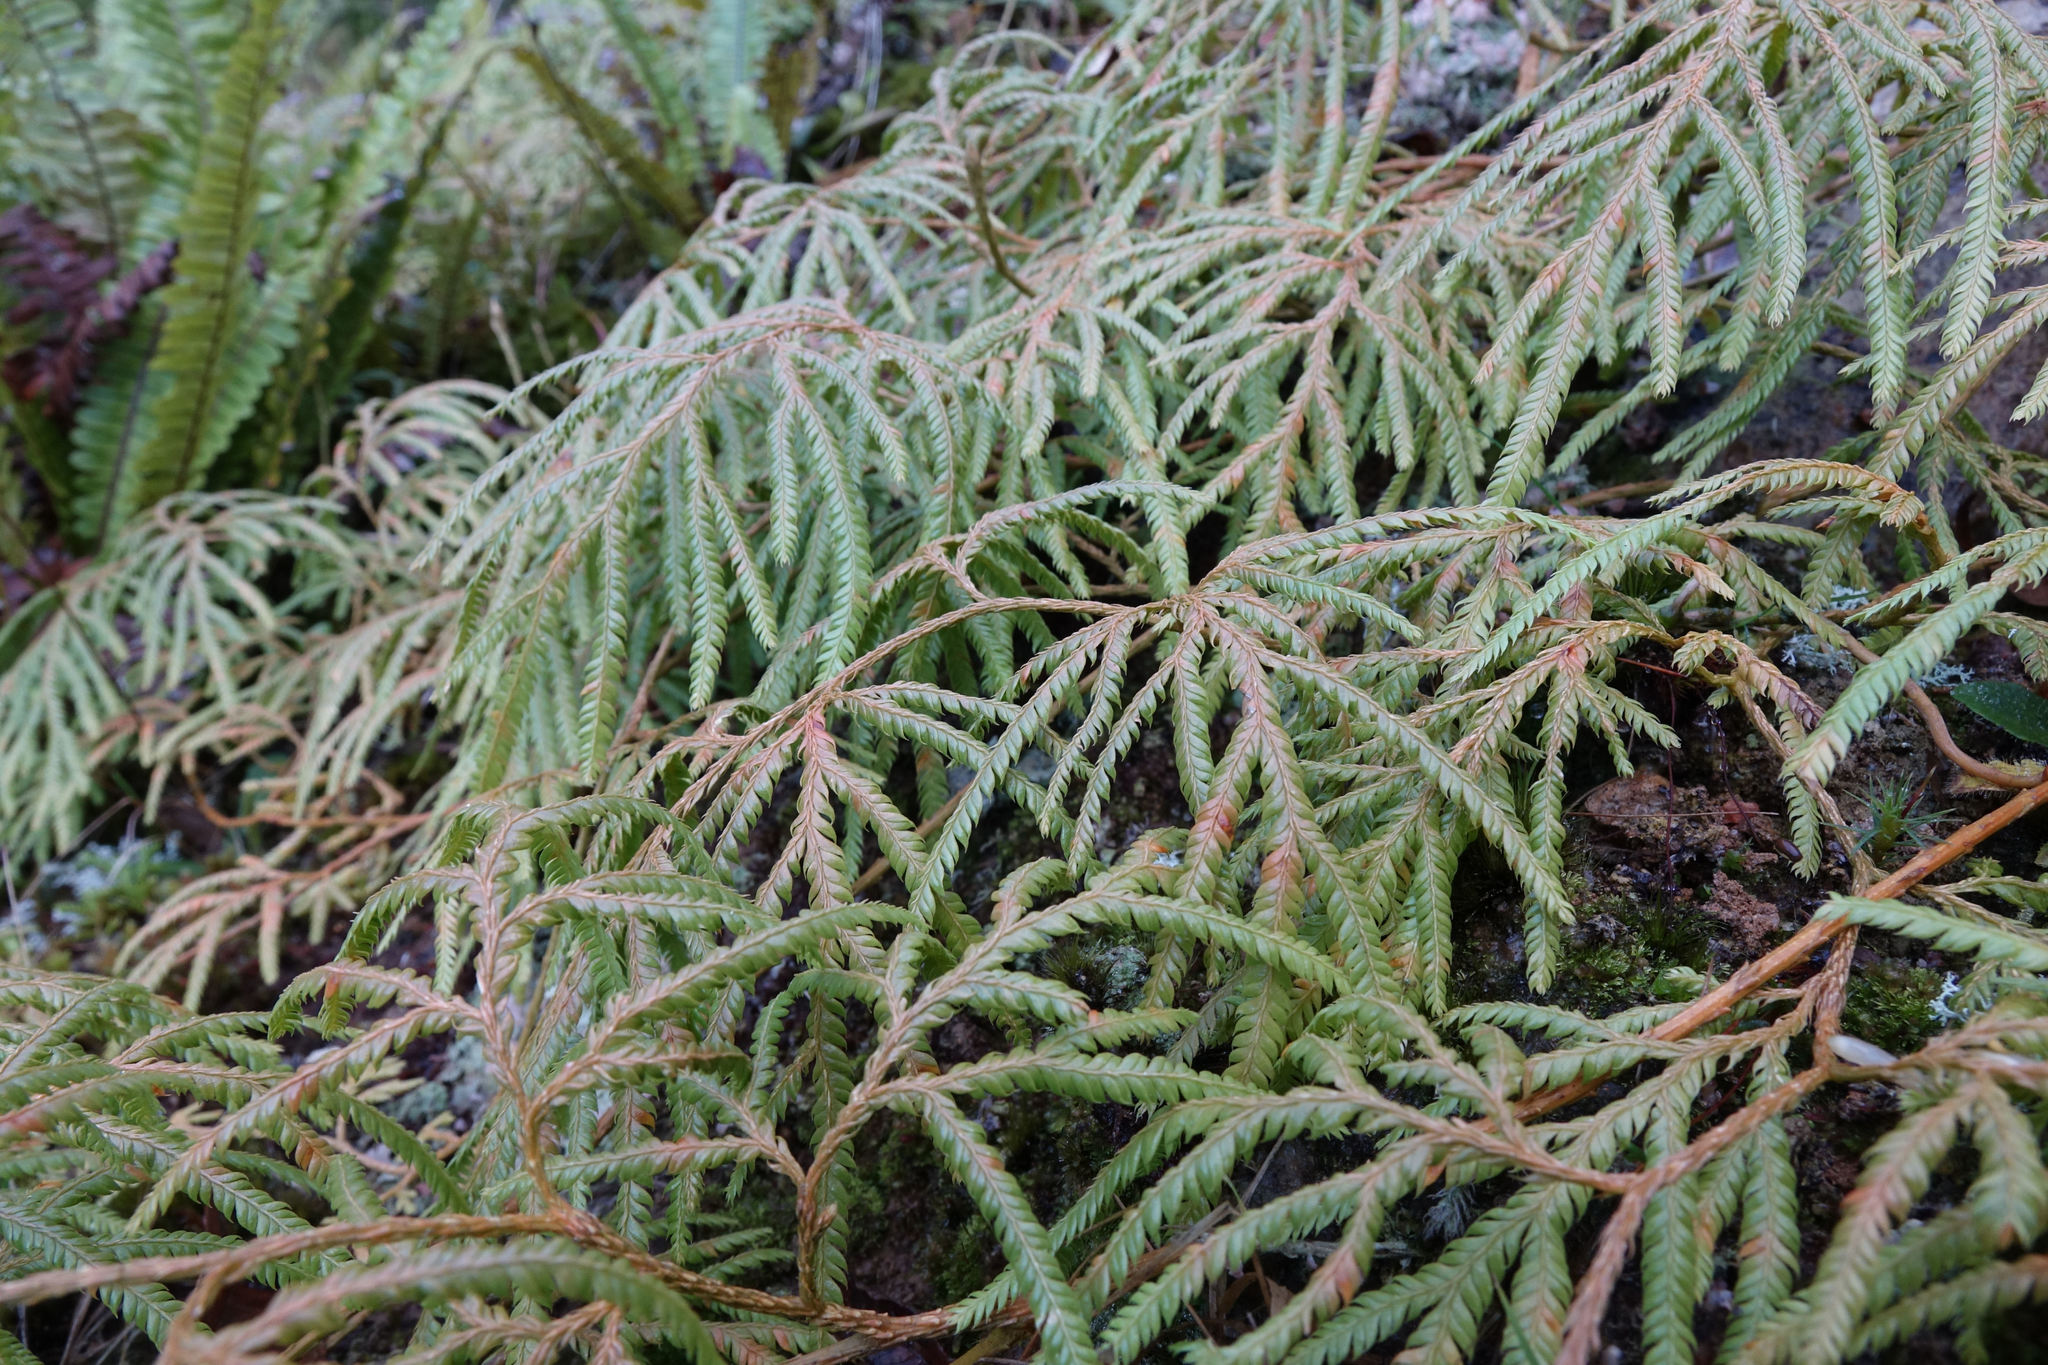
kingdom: Plantae
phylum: Tracheophyta
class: Lycopodiopsida
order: Lycopodiales
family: Lycopodiaceae
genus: Lycopodium
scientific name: Lycopodium volubile
